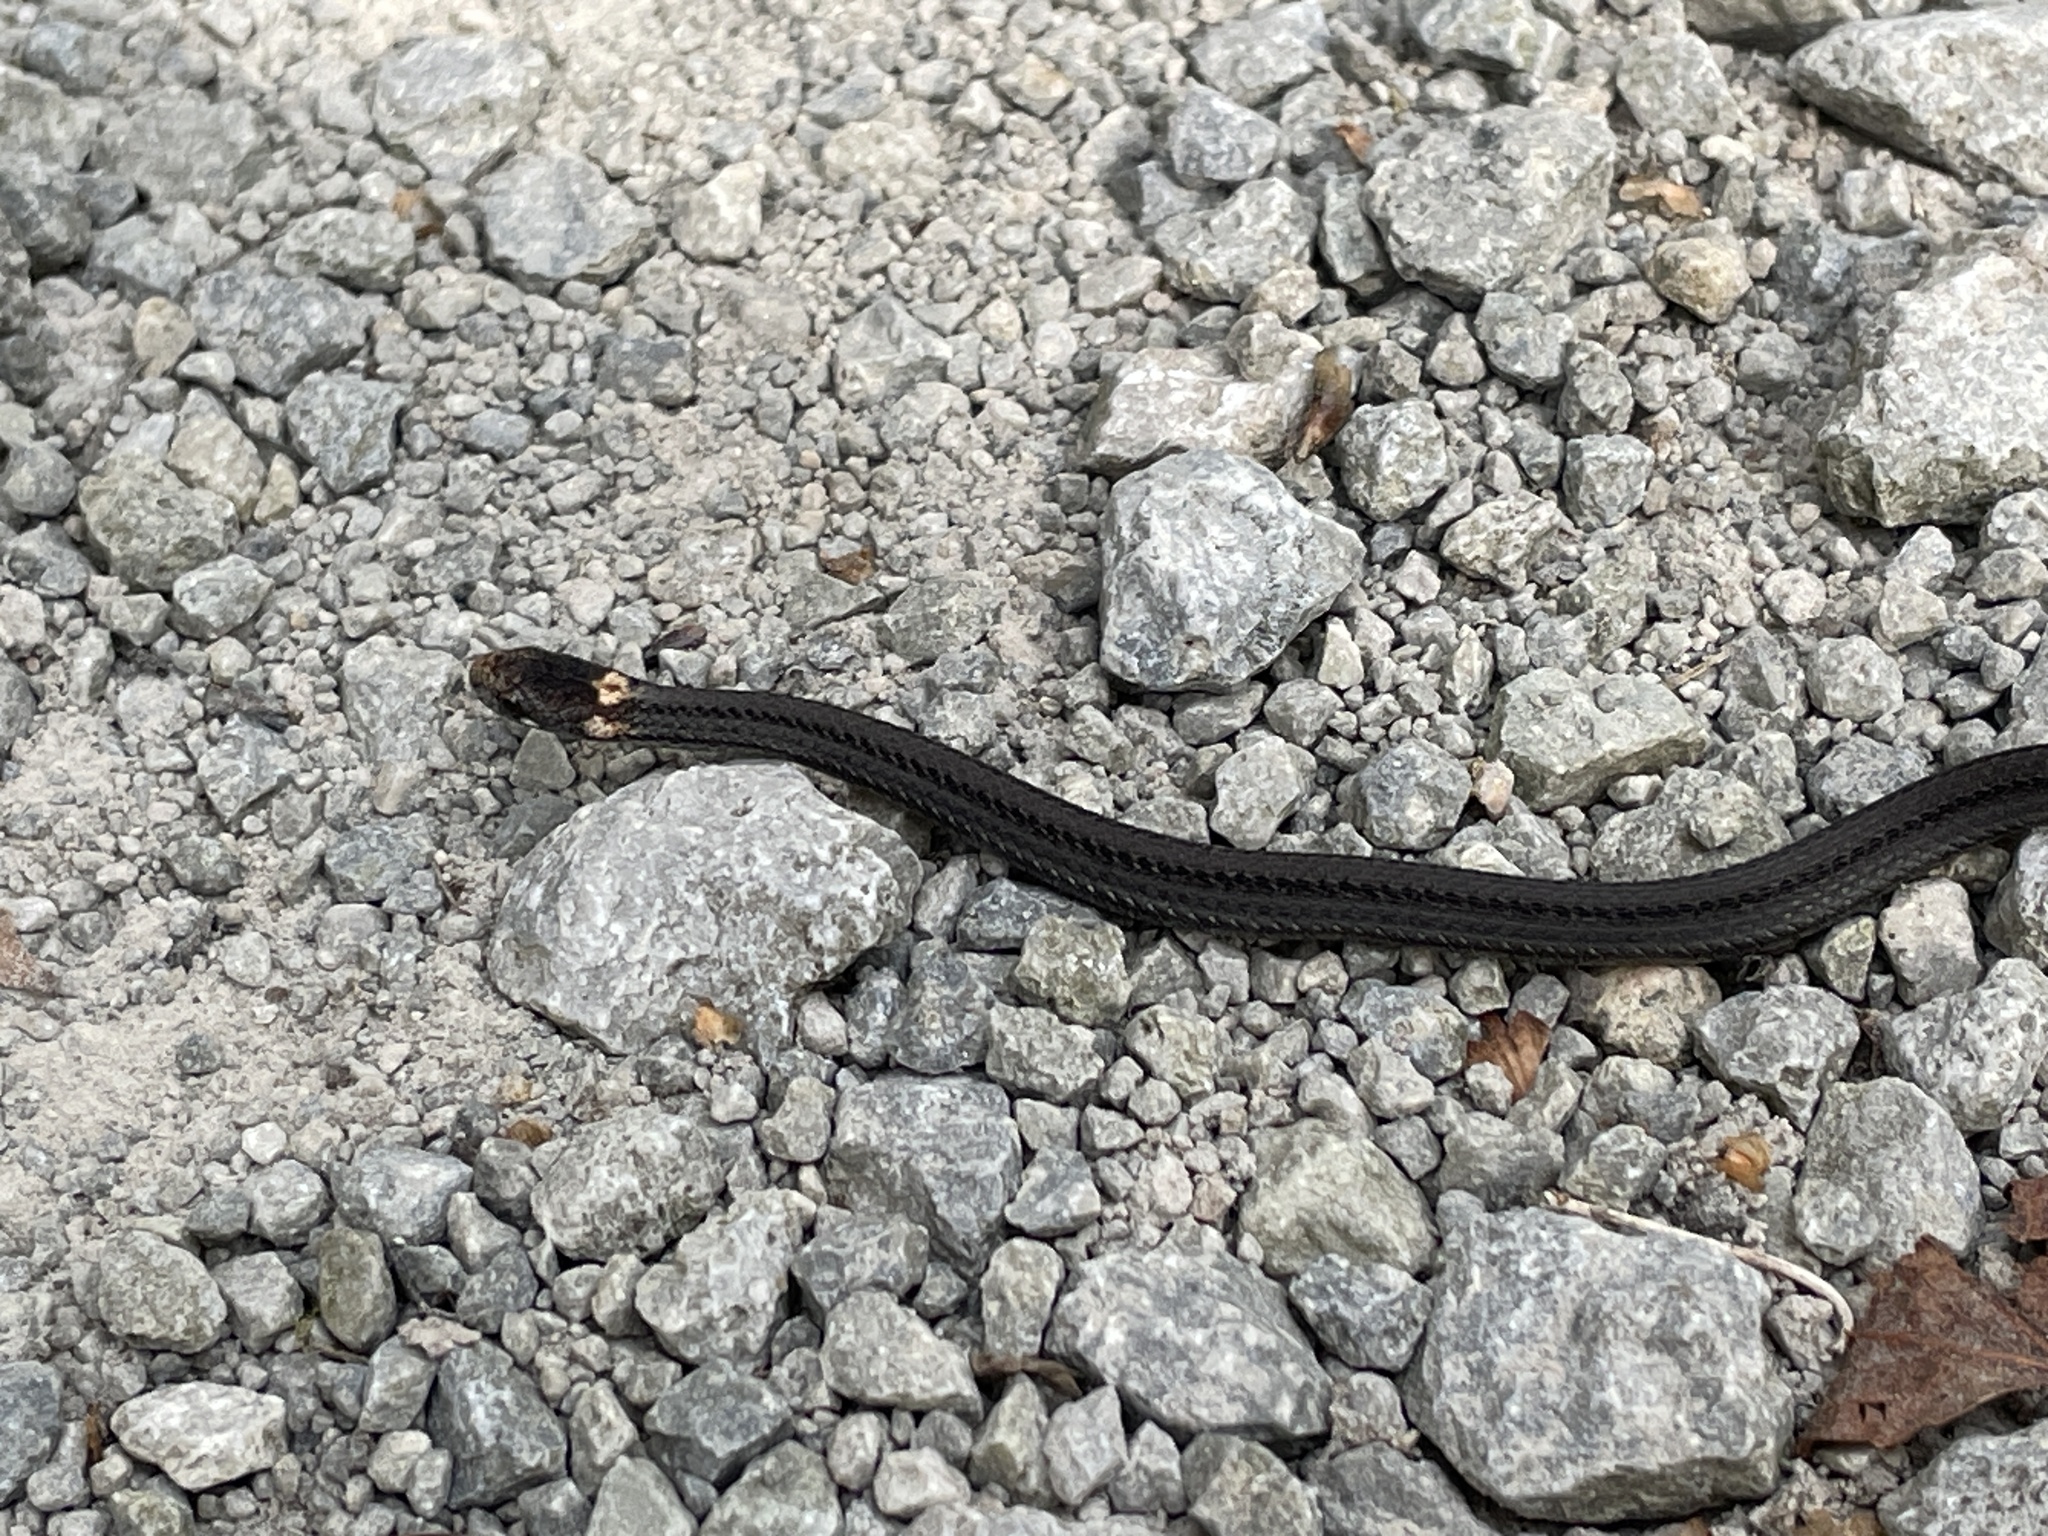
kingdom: Animalia
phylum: Chordata
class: Squamata
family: Colubridae
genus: Storeria
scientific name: Storeria occipitomaculata
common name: Redbelly snake
